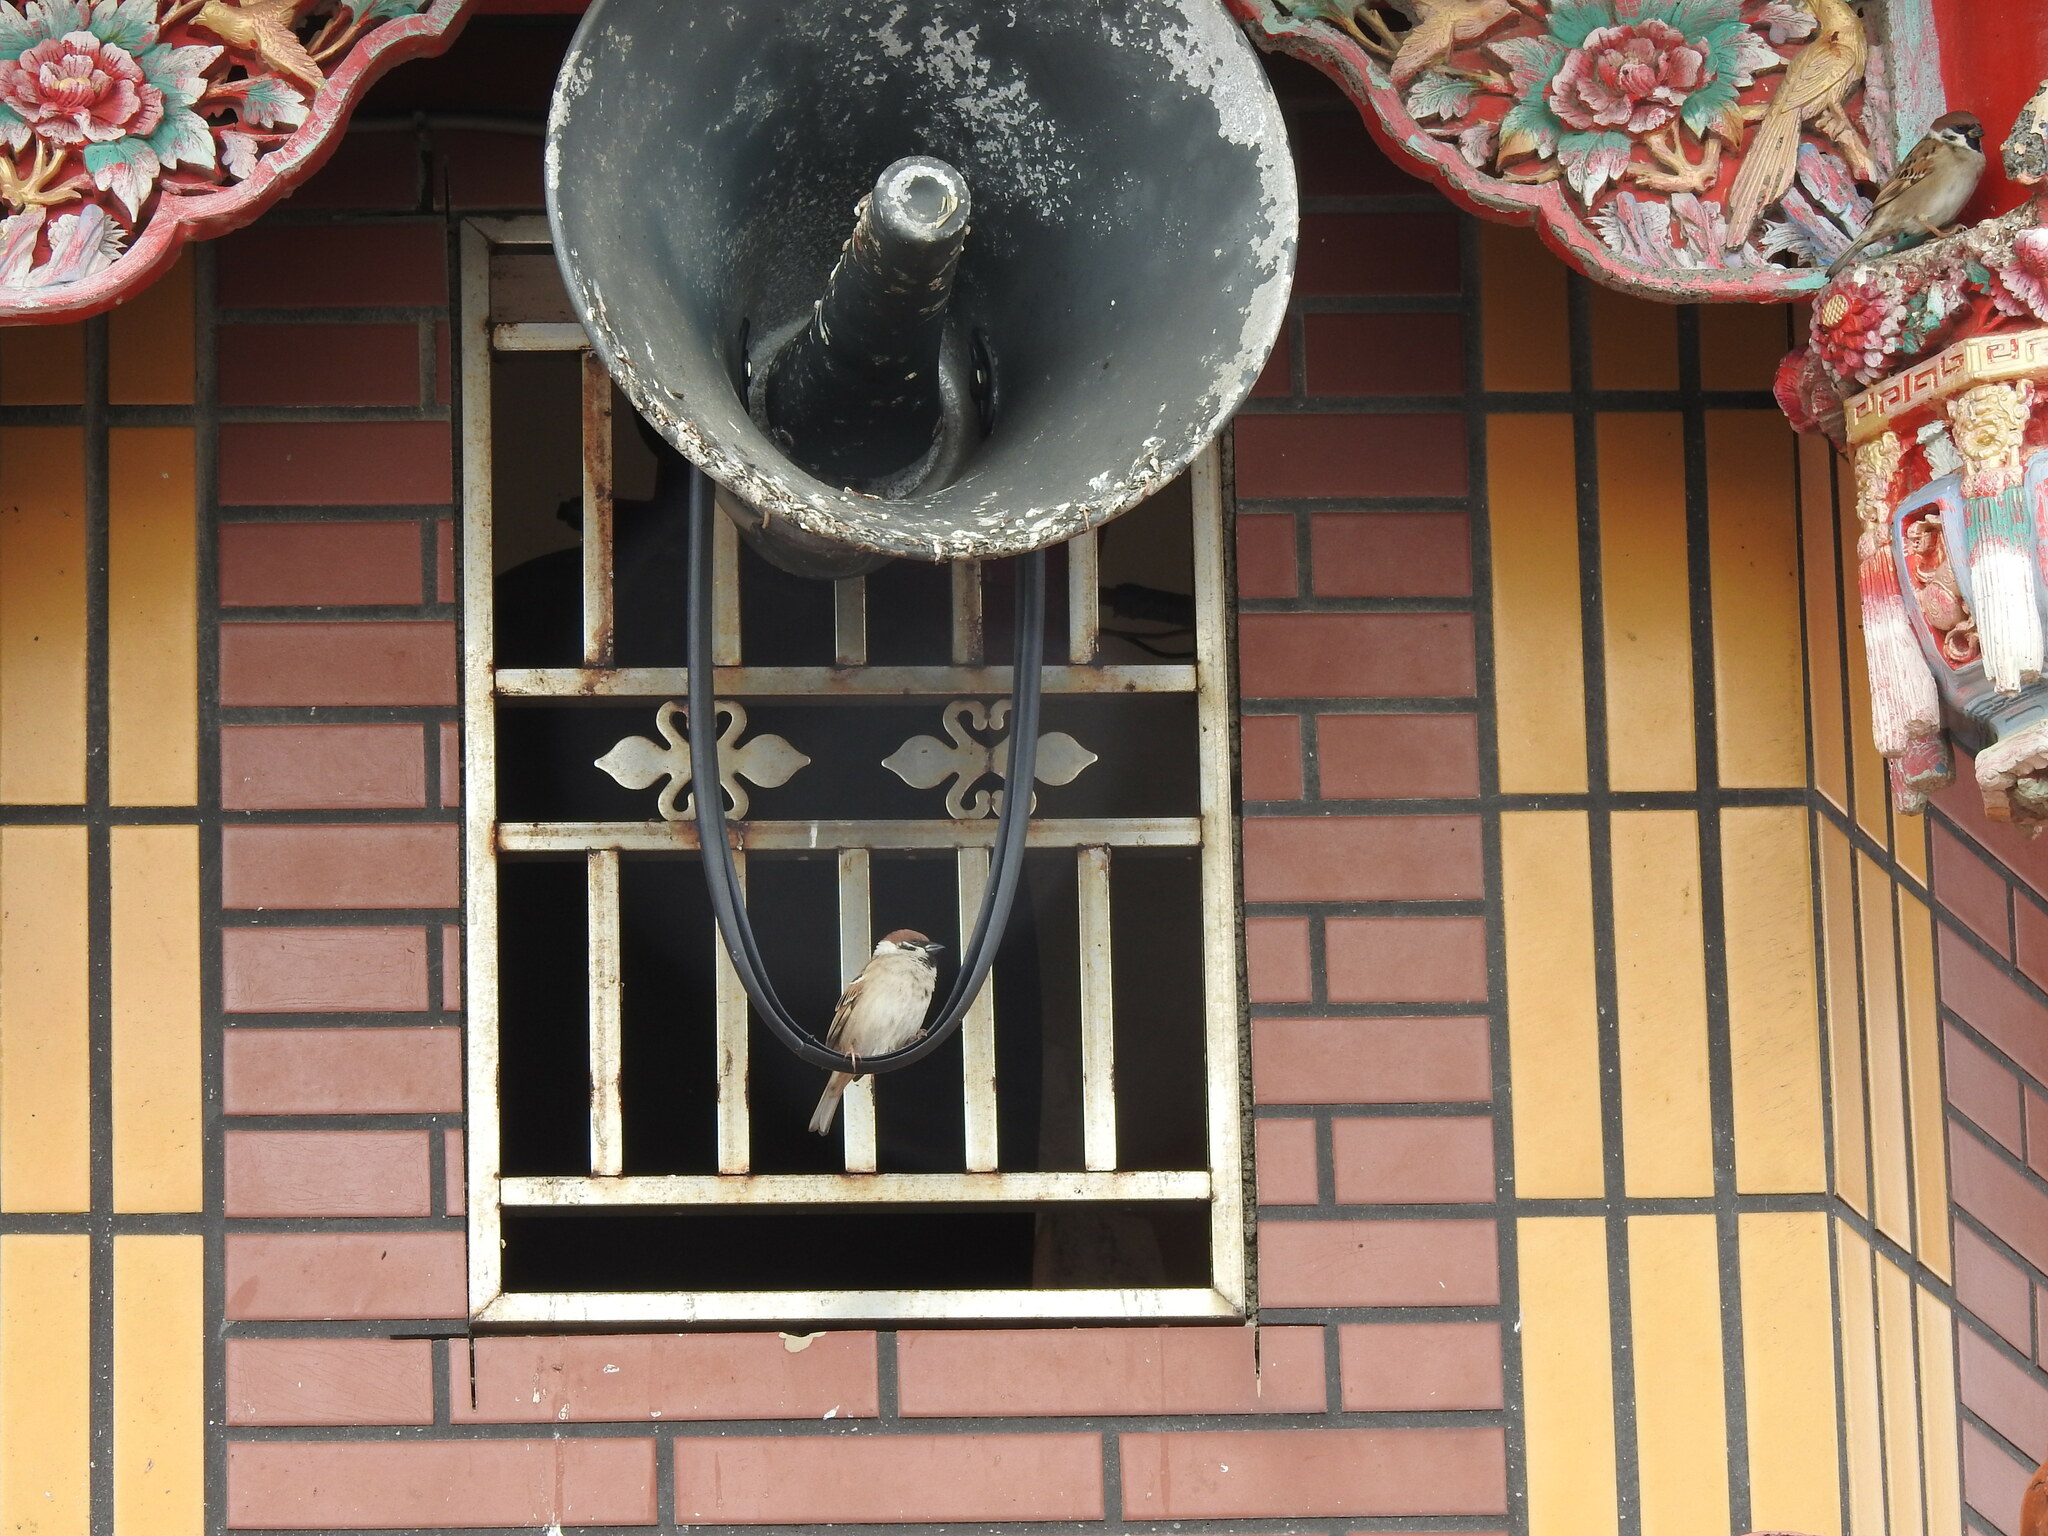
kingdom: Animalia
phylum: Chordata
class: Aves
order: Passeriformes
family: Passeridae
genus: Passer
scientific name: Passer montanus
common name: Eurasian tree sparrow
